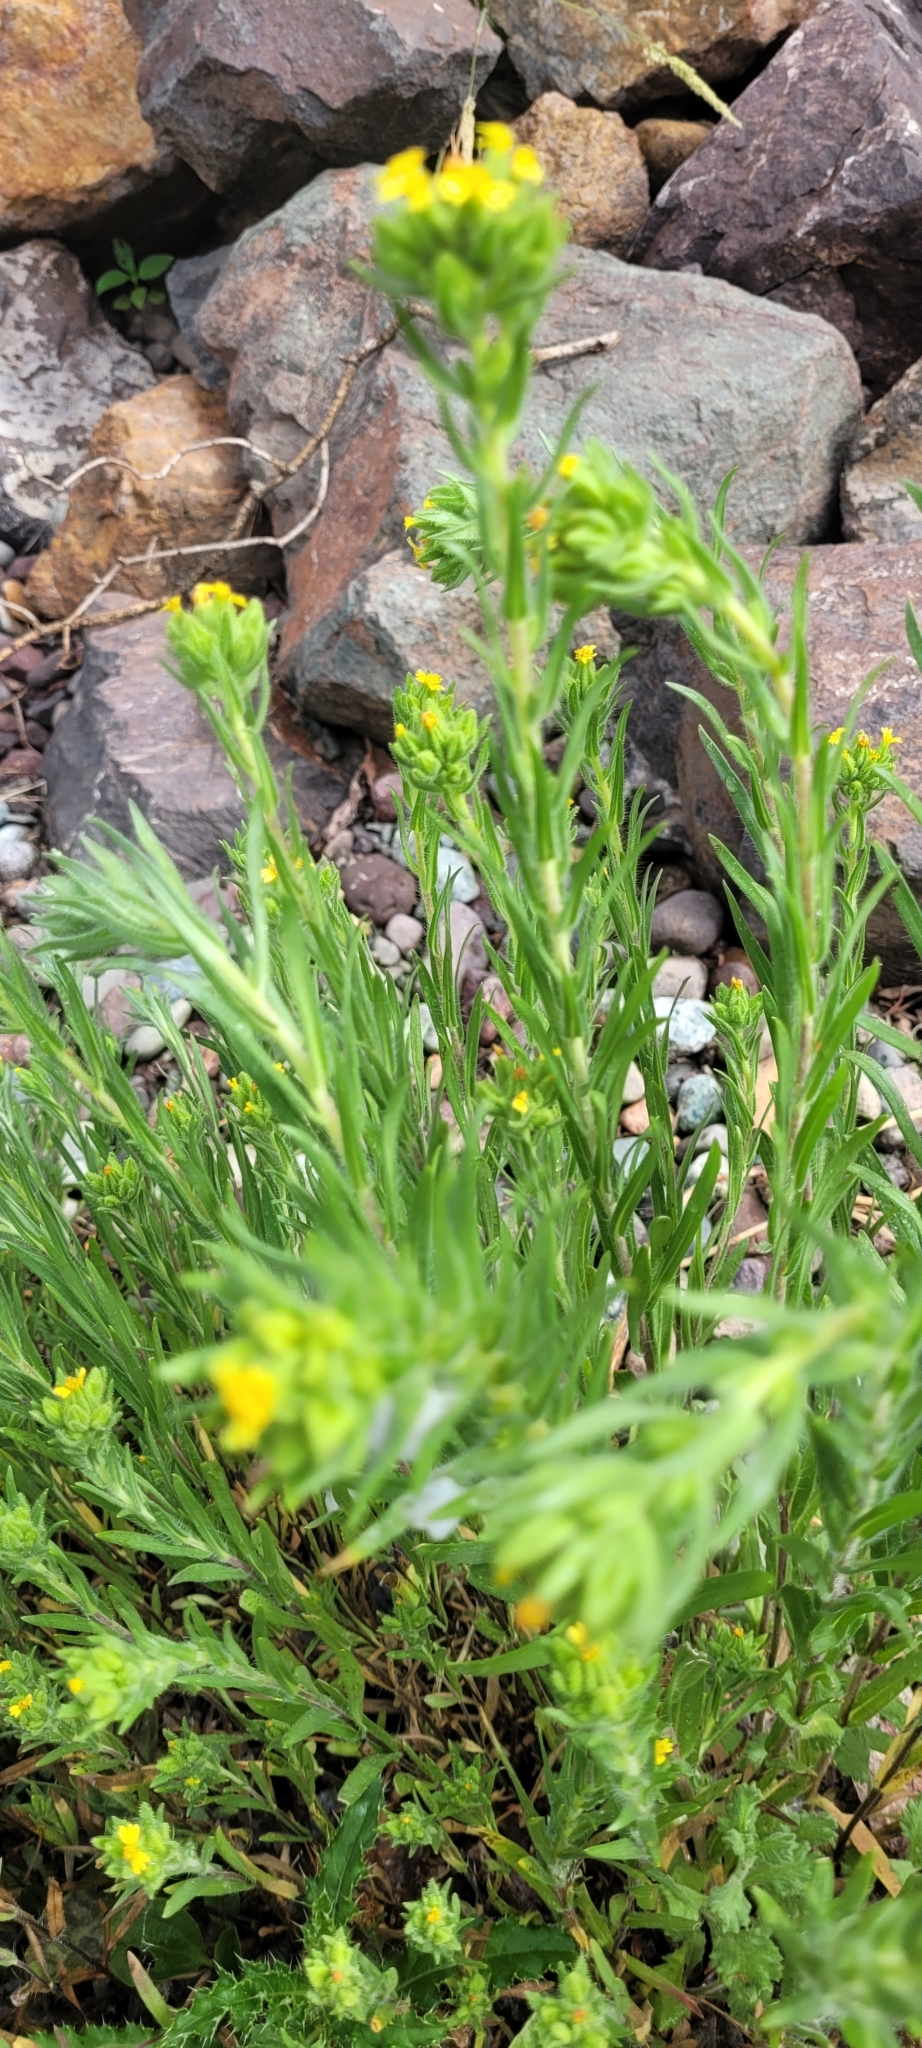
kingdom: Plantae
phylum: Tracheophyta
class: Magnoliopsida
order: Asterales
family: Asteraceae
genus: Madia
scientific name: Madia glomerata
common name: Mountain tarweed
